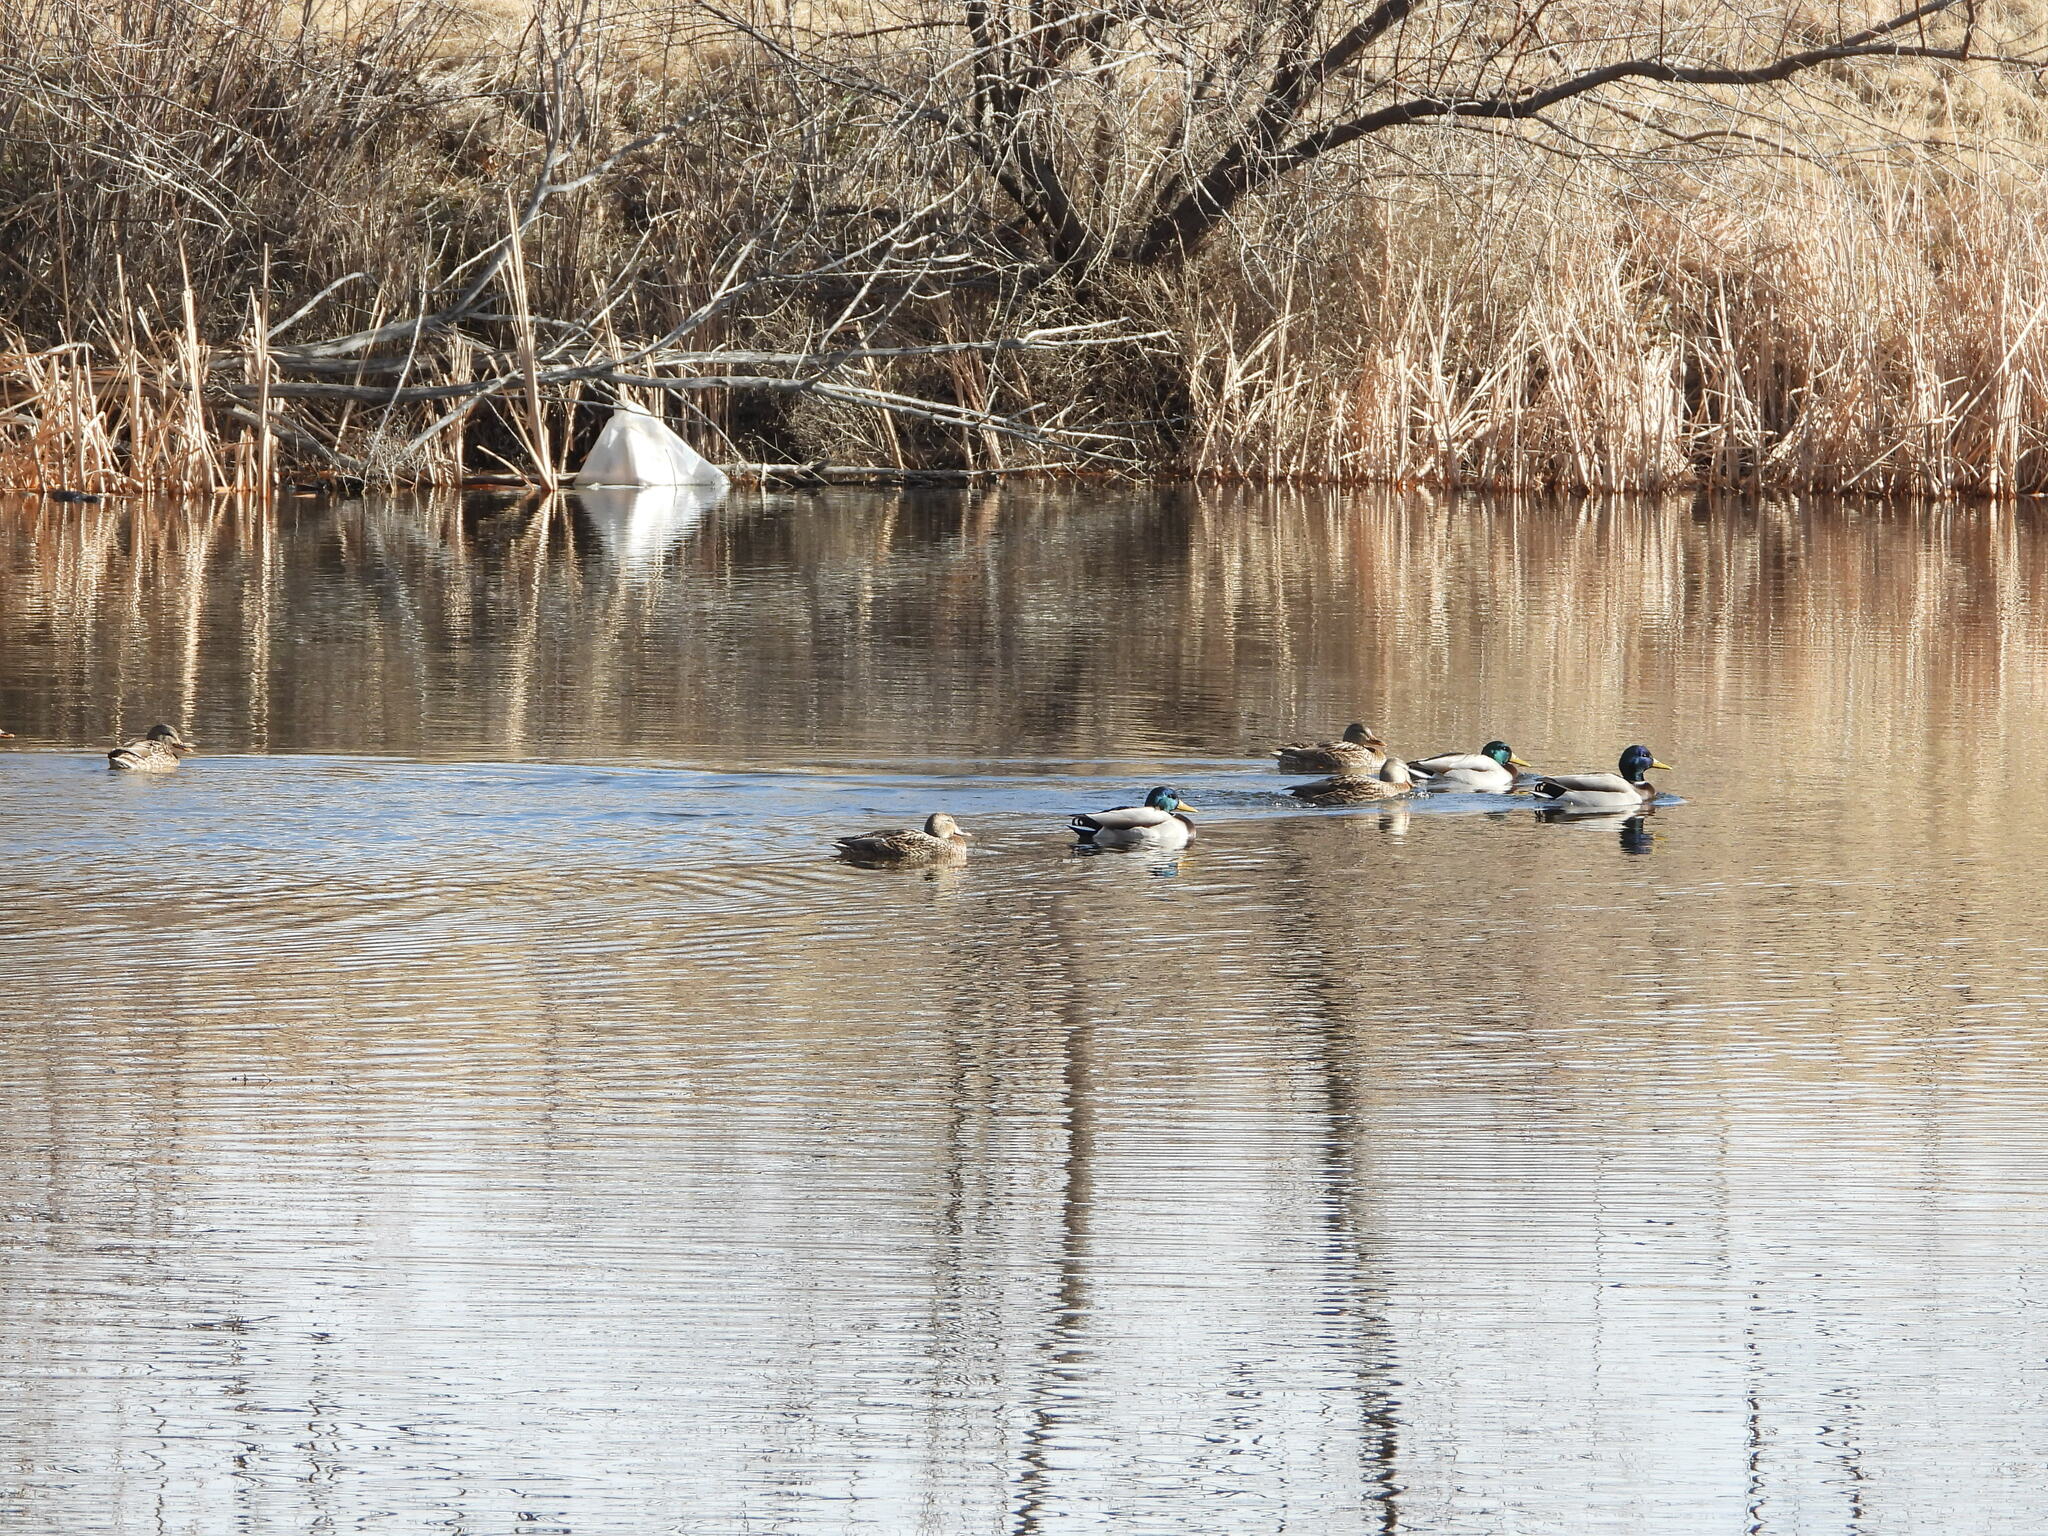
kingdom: Animalia
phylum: Chordata
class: Aves
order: Anseriformes
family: Anatidae
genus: Anas
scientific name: Anas platyrhynchos
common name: Mallard
